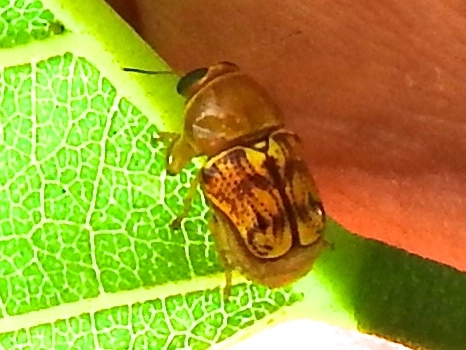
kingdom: Animalia
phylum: Arthropoda
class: Insecta
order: Coleoptera
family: Chrysomelidae
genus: Griburius
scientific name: Griburius puncturatus
